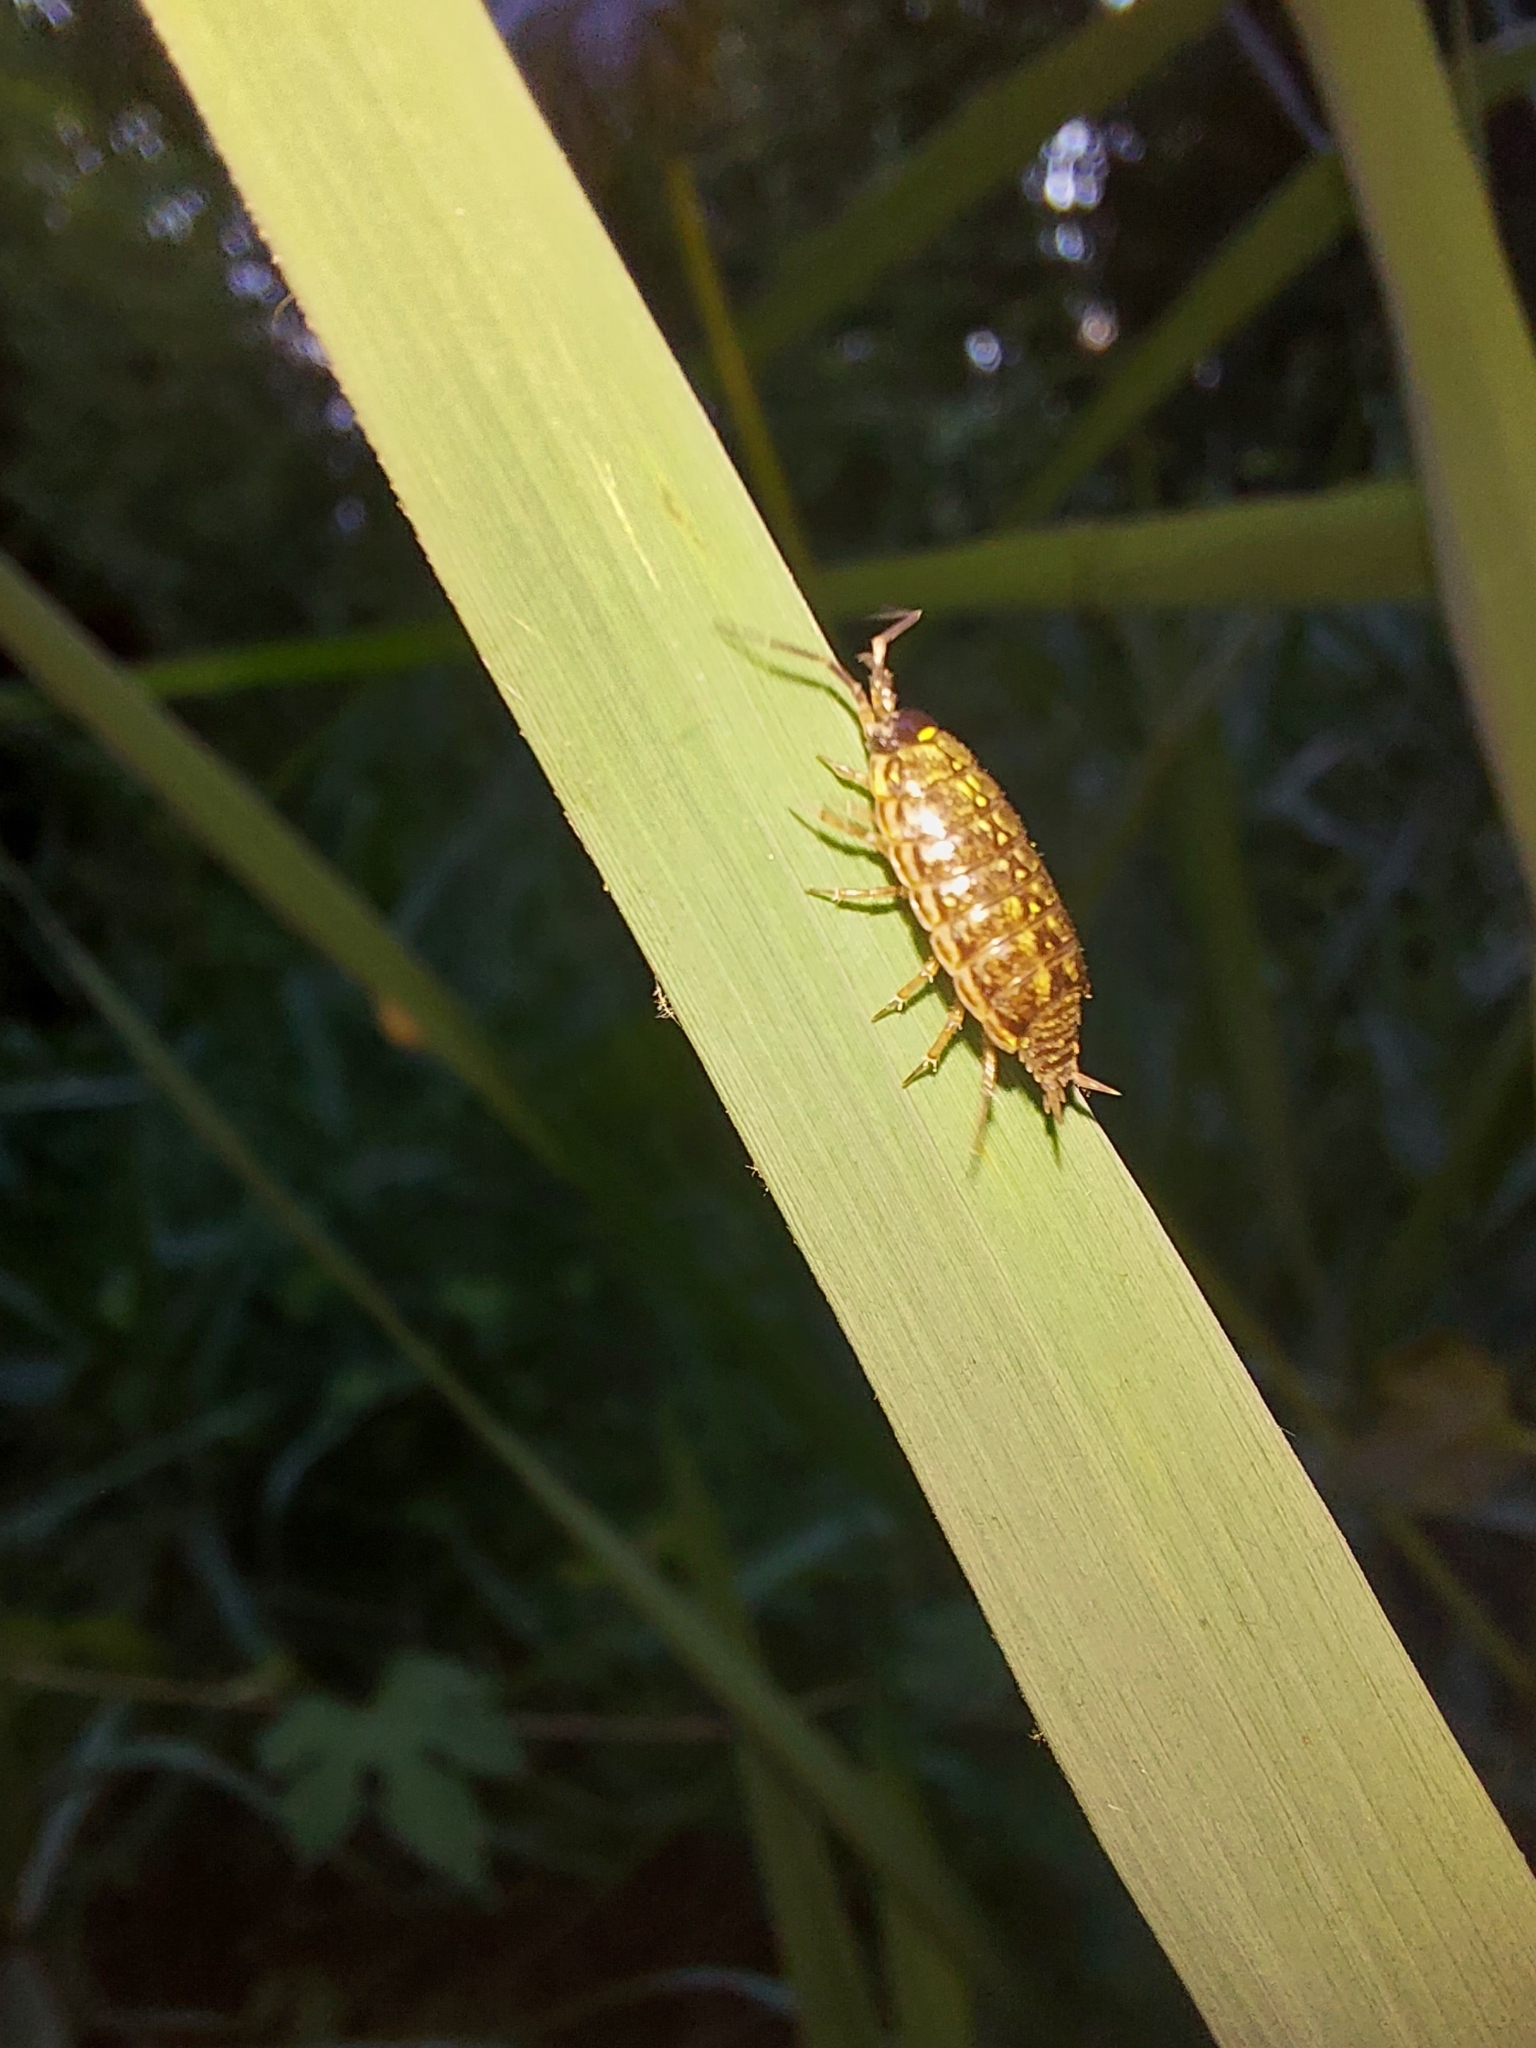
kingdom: Animalia
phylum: Arthropoda
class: Malacostraca
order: Isopoda
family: Philosciidae
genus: Philoscia
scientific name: Philoscia muscorum
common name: Common striped woodlouse
